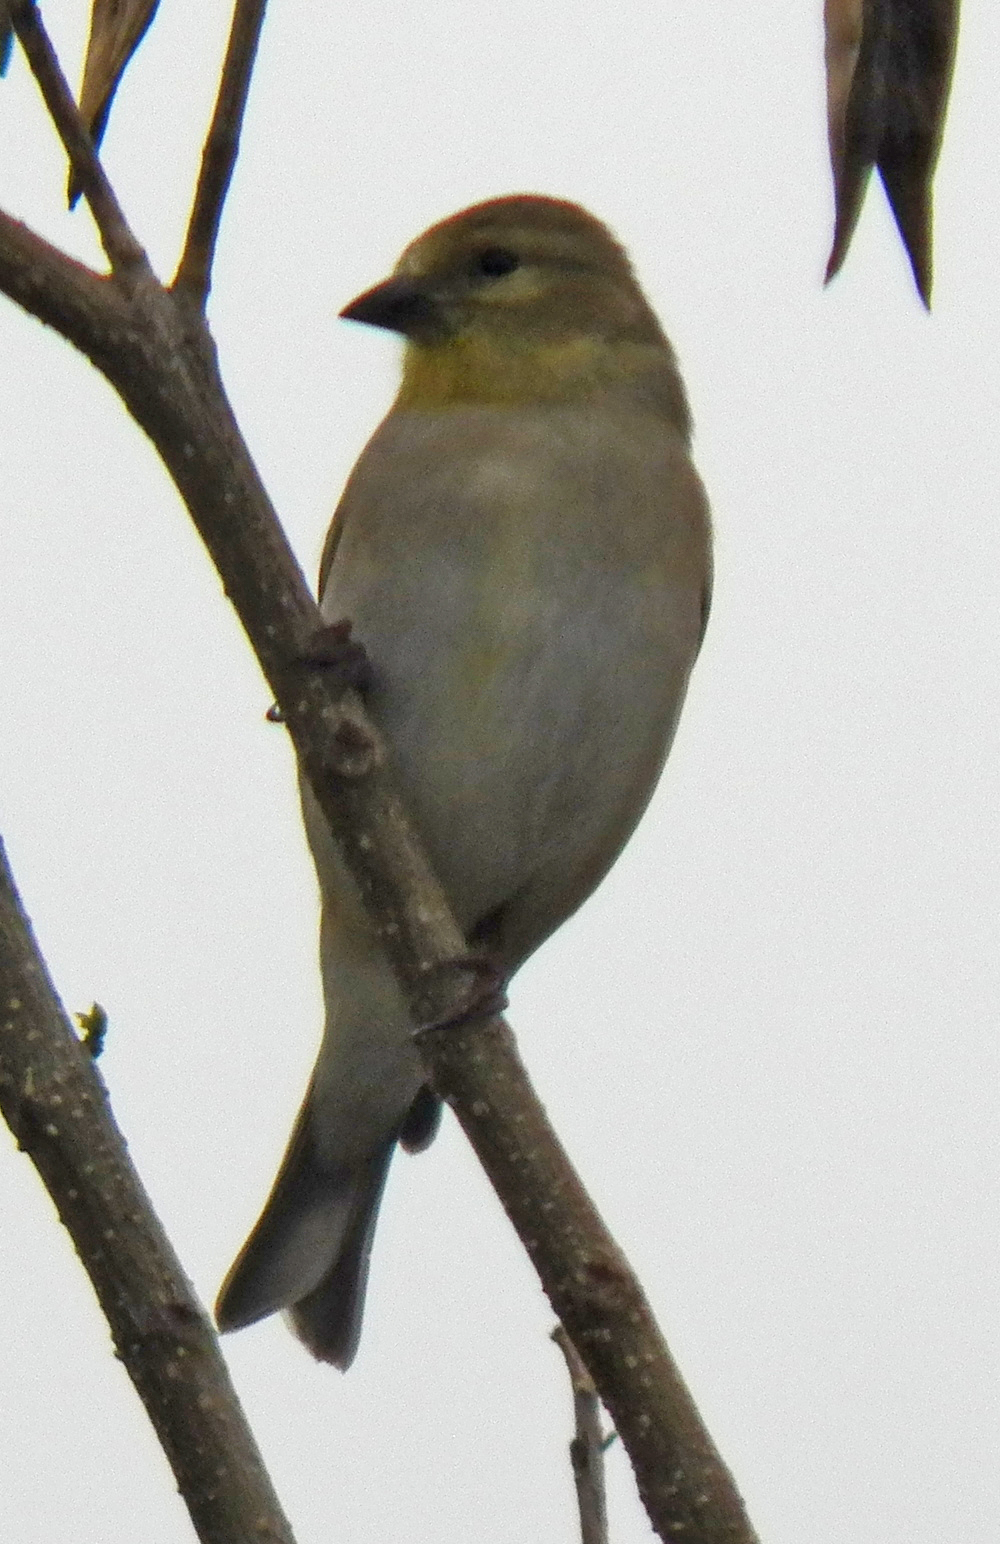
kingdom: Animalia
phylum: Chordata
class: Aves
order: Passeriformes
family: Fringillidae
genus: Spinus
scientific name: Spinus tristis
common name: American goldfinch
